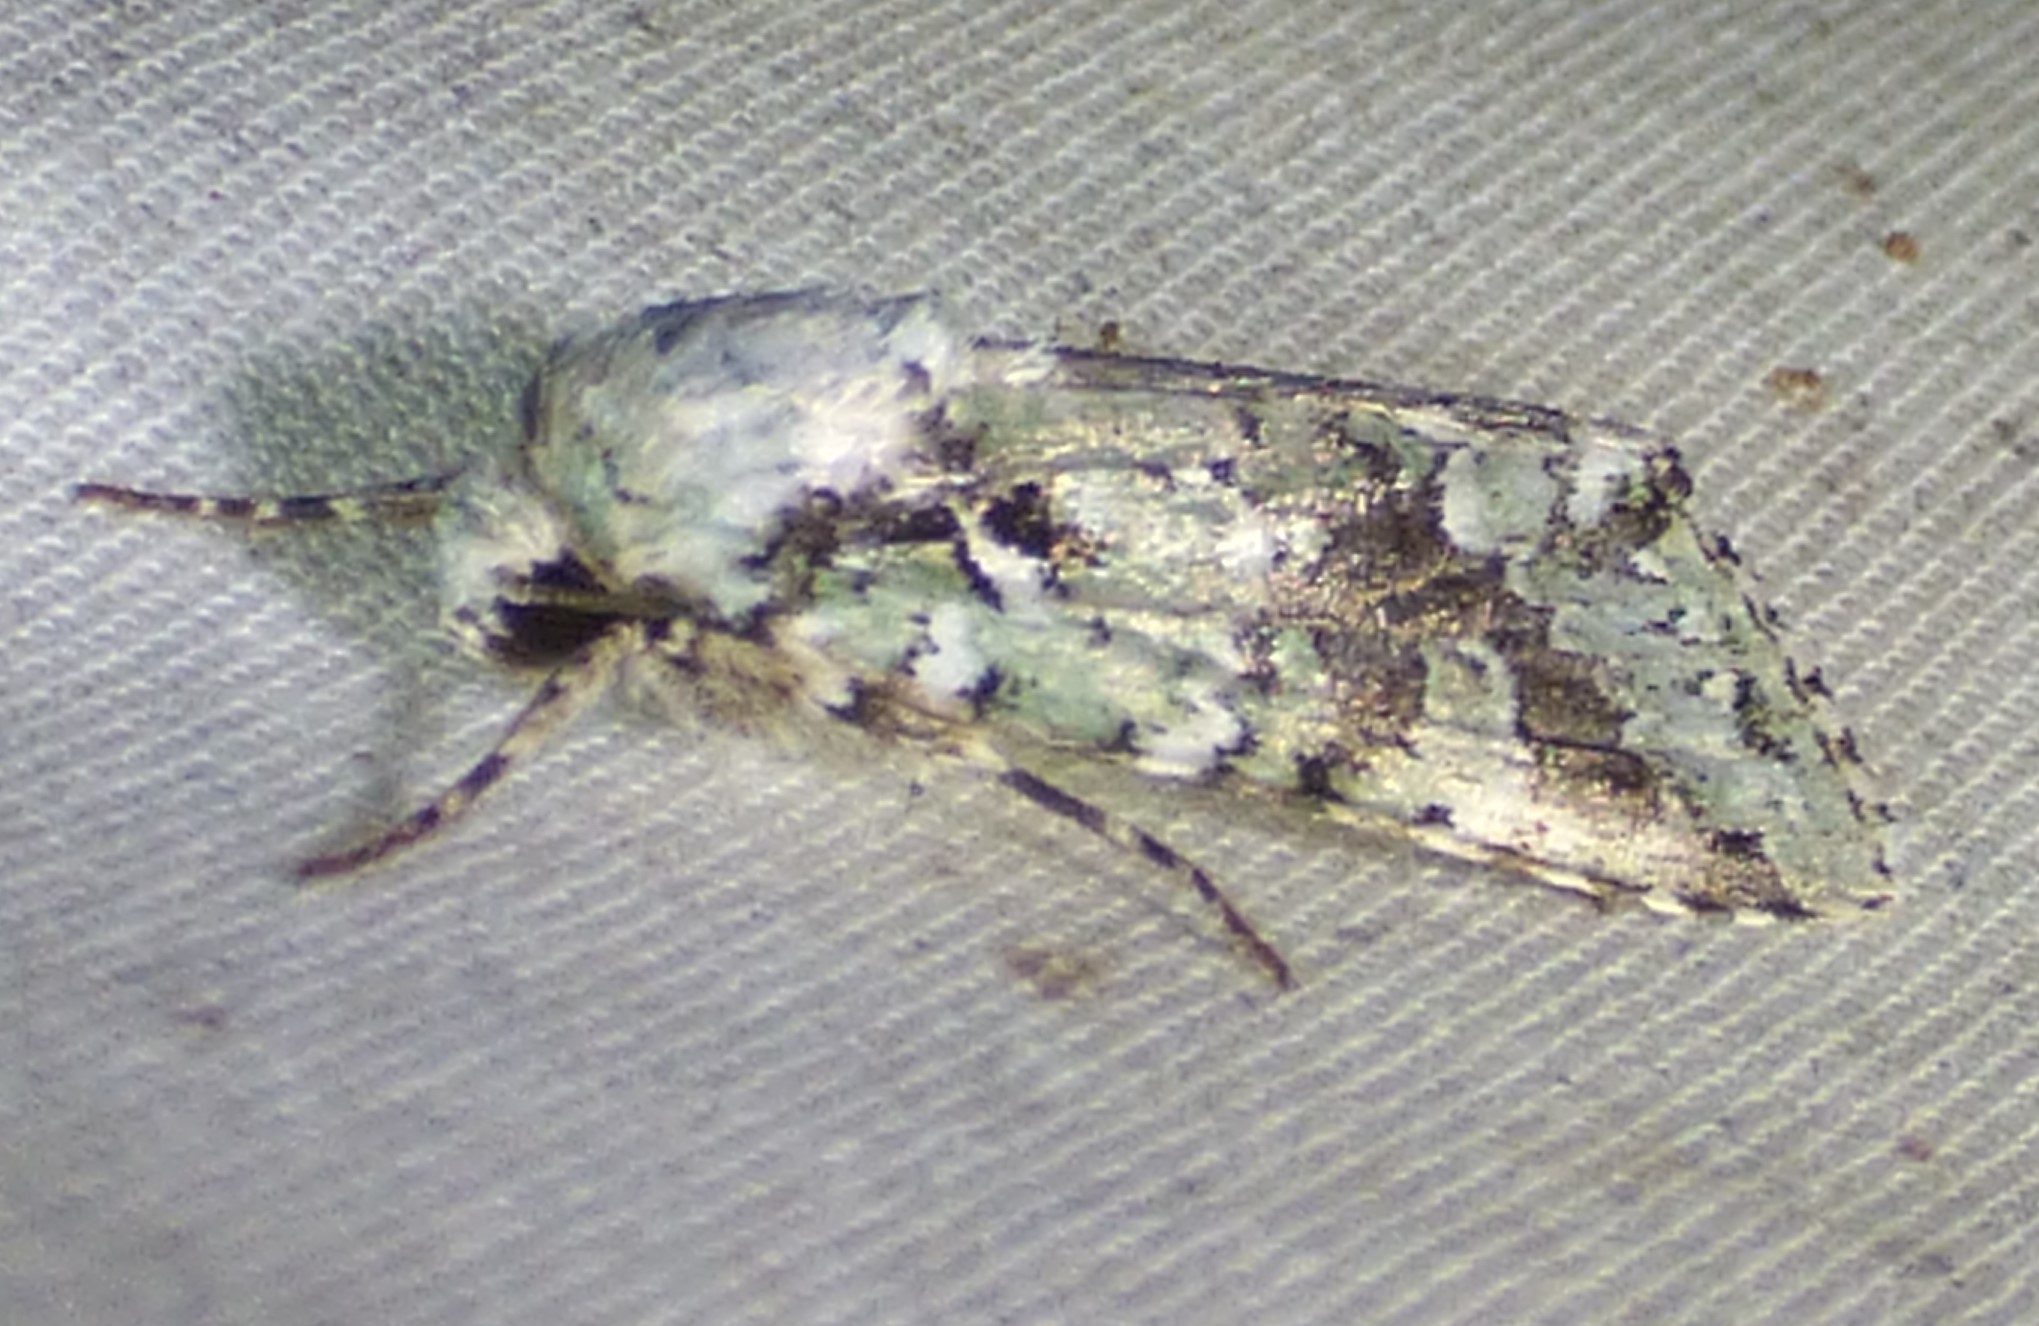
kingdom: Animalia
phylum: Arthropoda
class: Insecta
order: Lepidoptera
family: Noctuidae
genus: Lacinipolia
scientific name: Lacinipolia laudabilis
